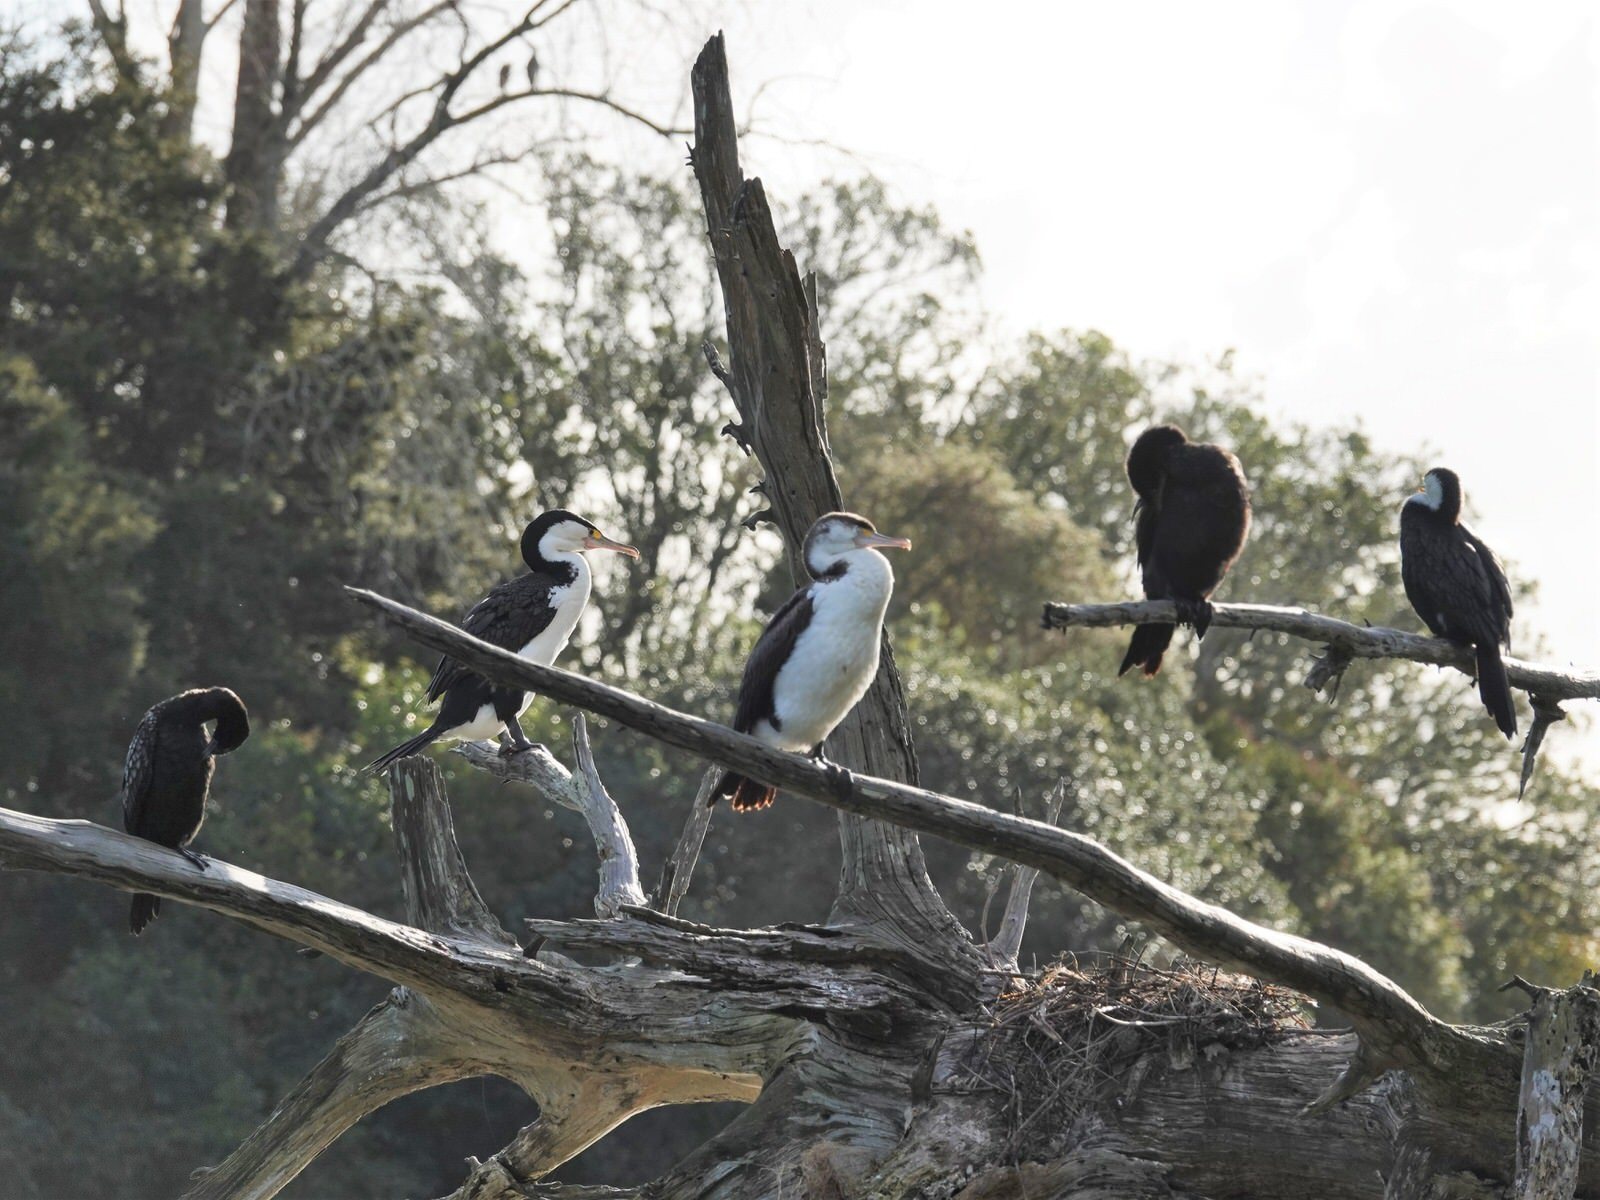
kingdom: Animalia
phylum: Chordata
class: Aves
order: Suliformes
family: Phalacrocoracidae
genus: Phalacrocorax
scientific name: Phalacrocorax varius
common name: Pied cormorant
